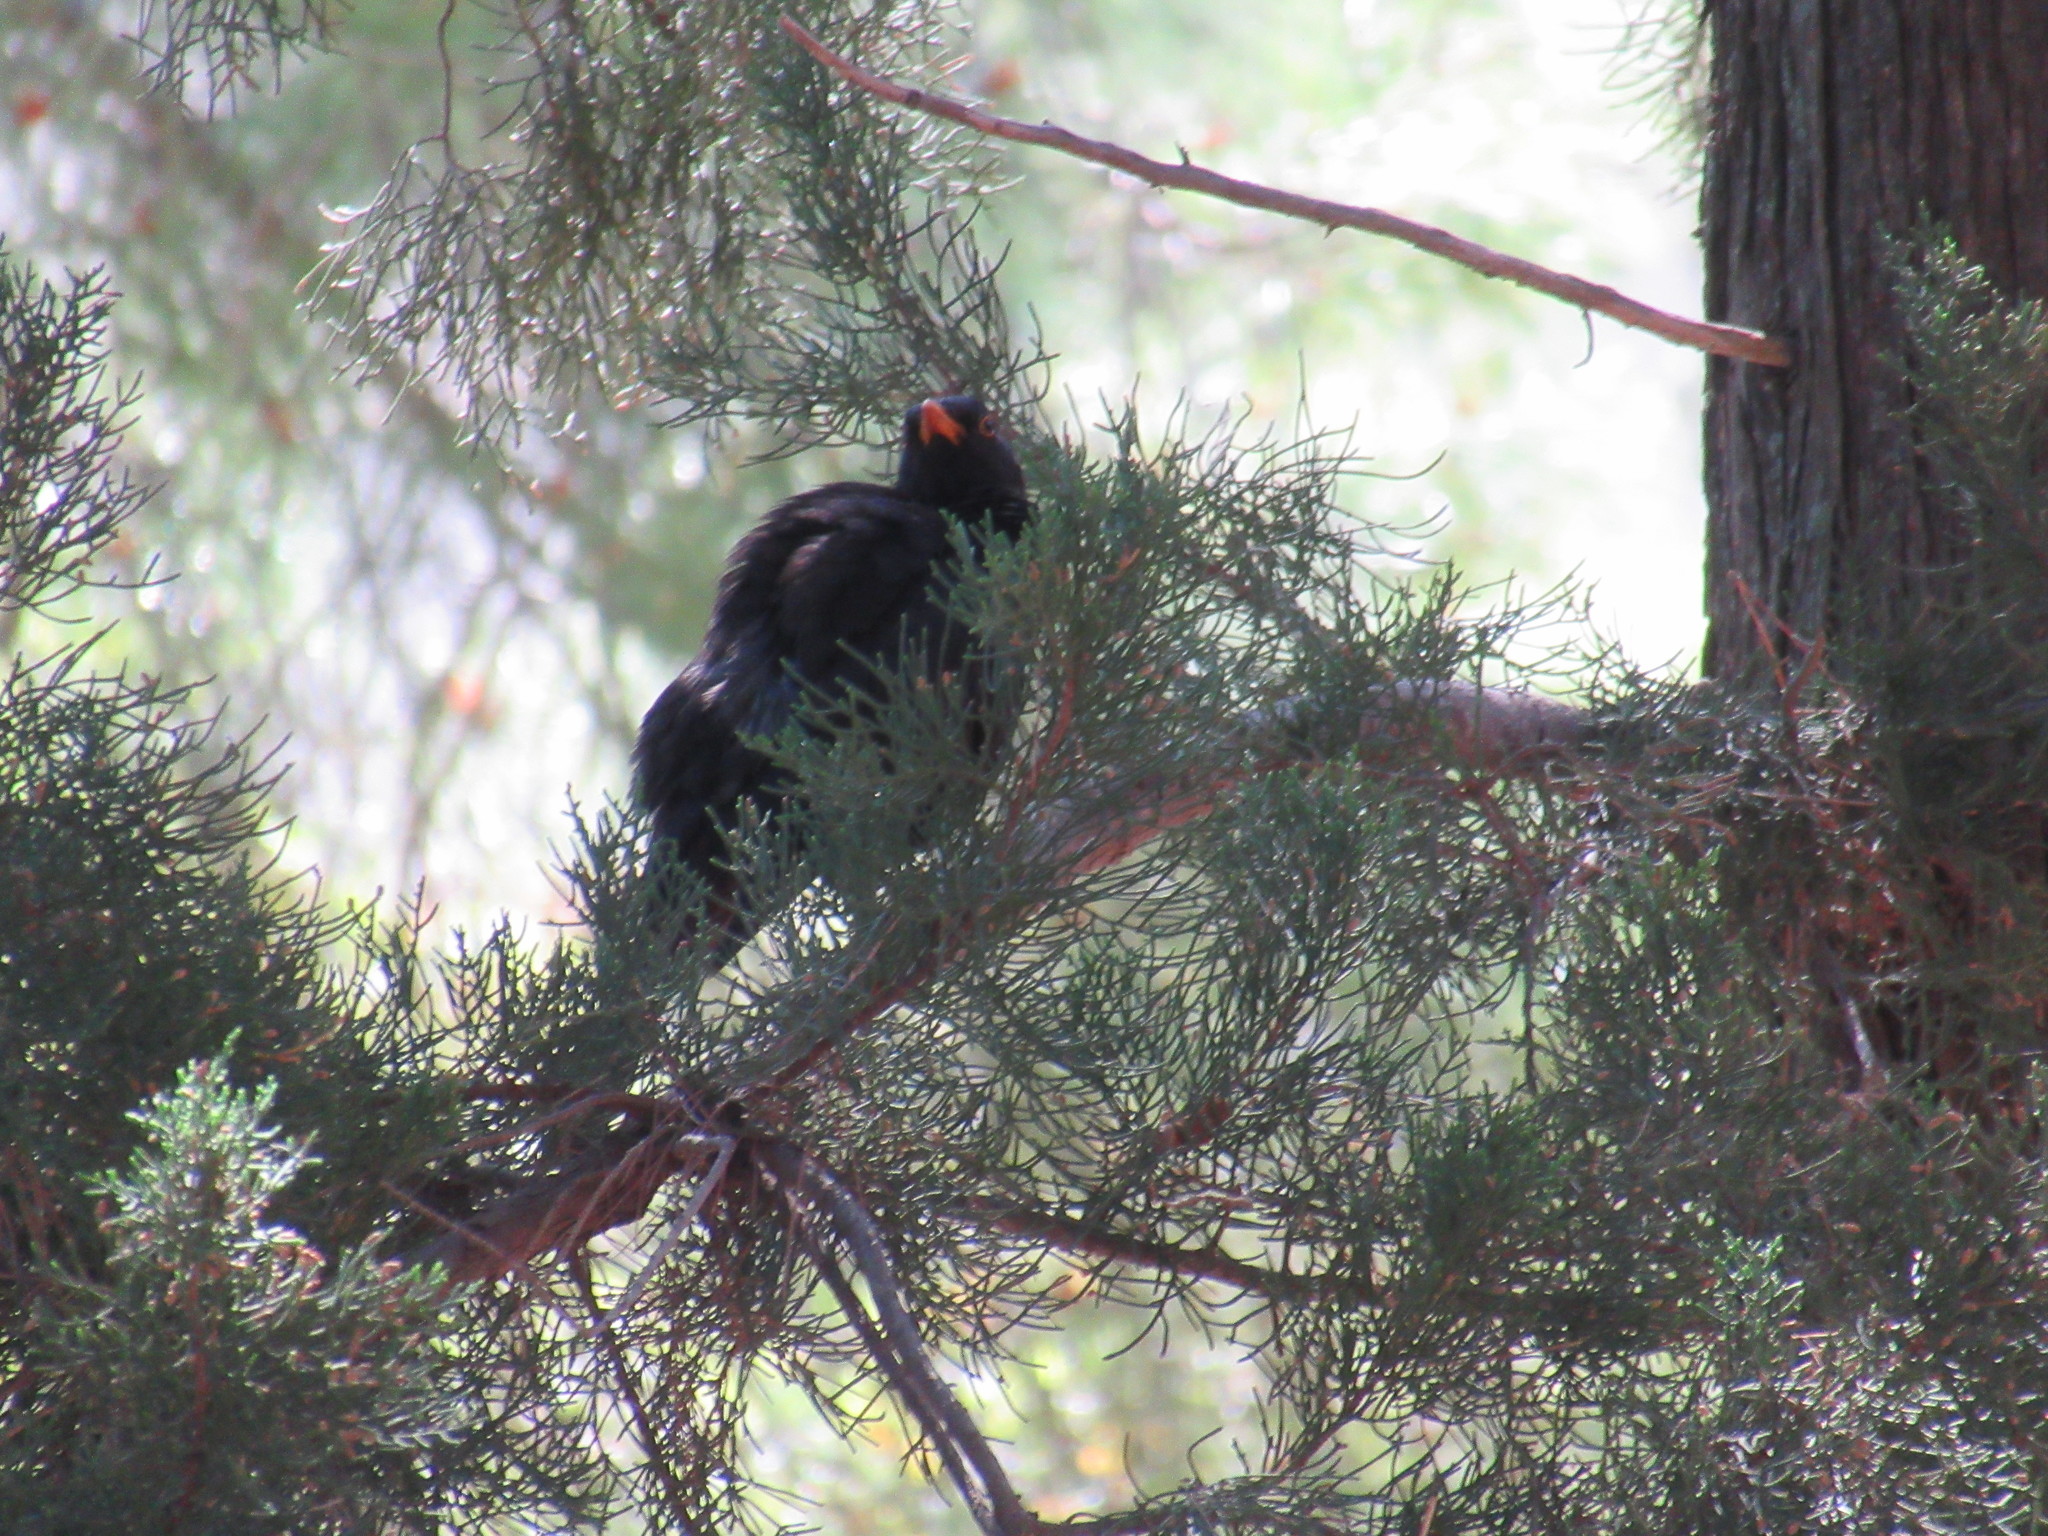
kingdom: Animalia
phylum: Chordata
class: Aves
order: Passeriformes
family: Turdidae
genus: Turdus
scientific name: Turdus merula
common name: Common blackbird
